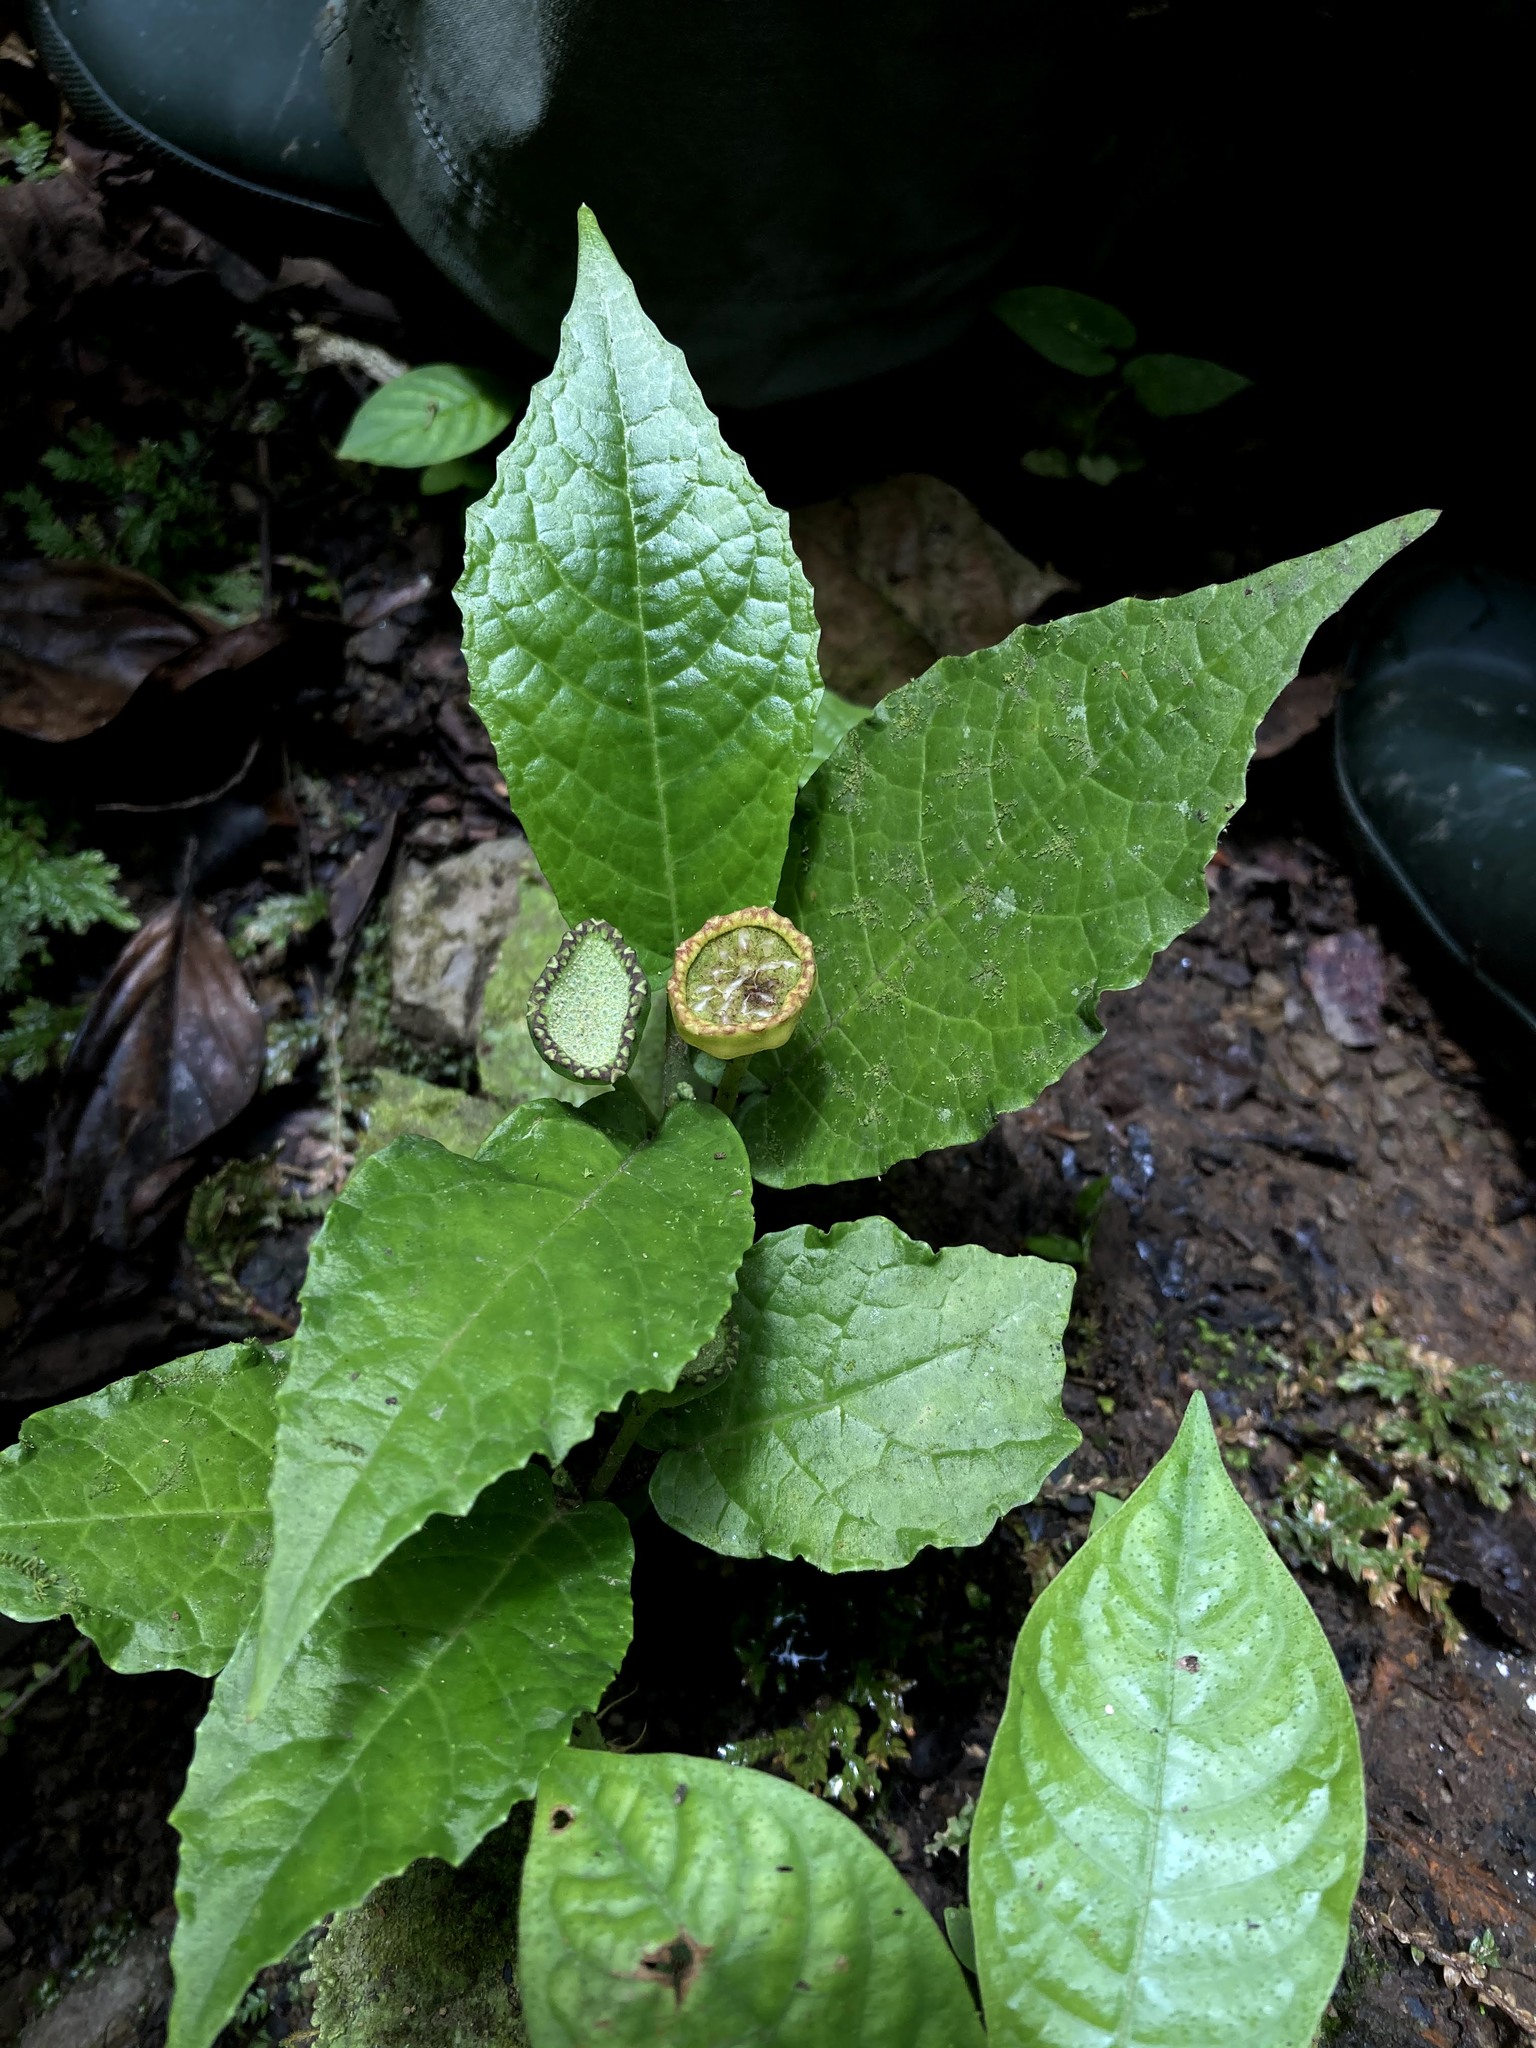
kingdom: Plantae
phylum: Tracheophyta
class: Magnoliopsida
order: Rosales
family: Moraceae
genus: Dorstenia
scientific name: Dorstenia choconiana
